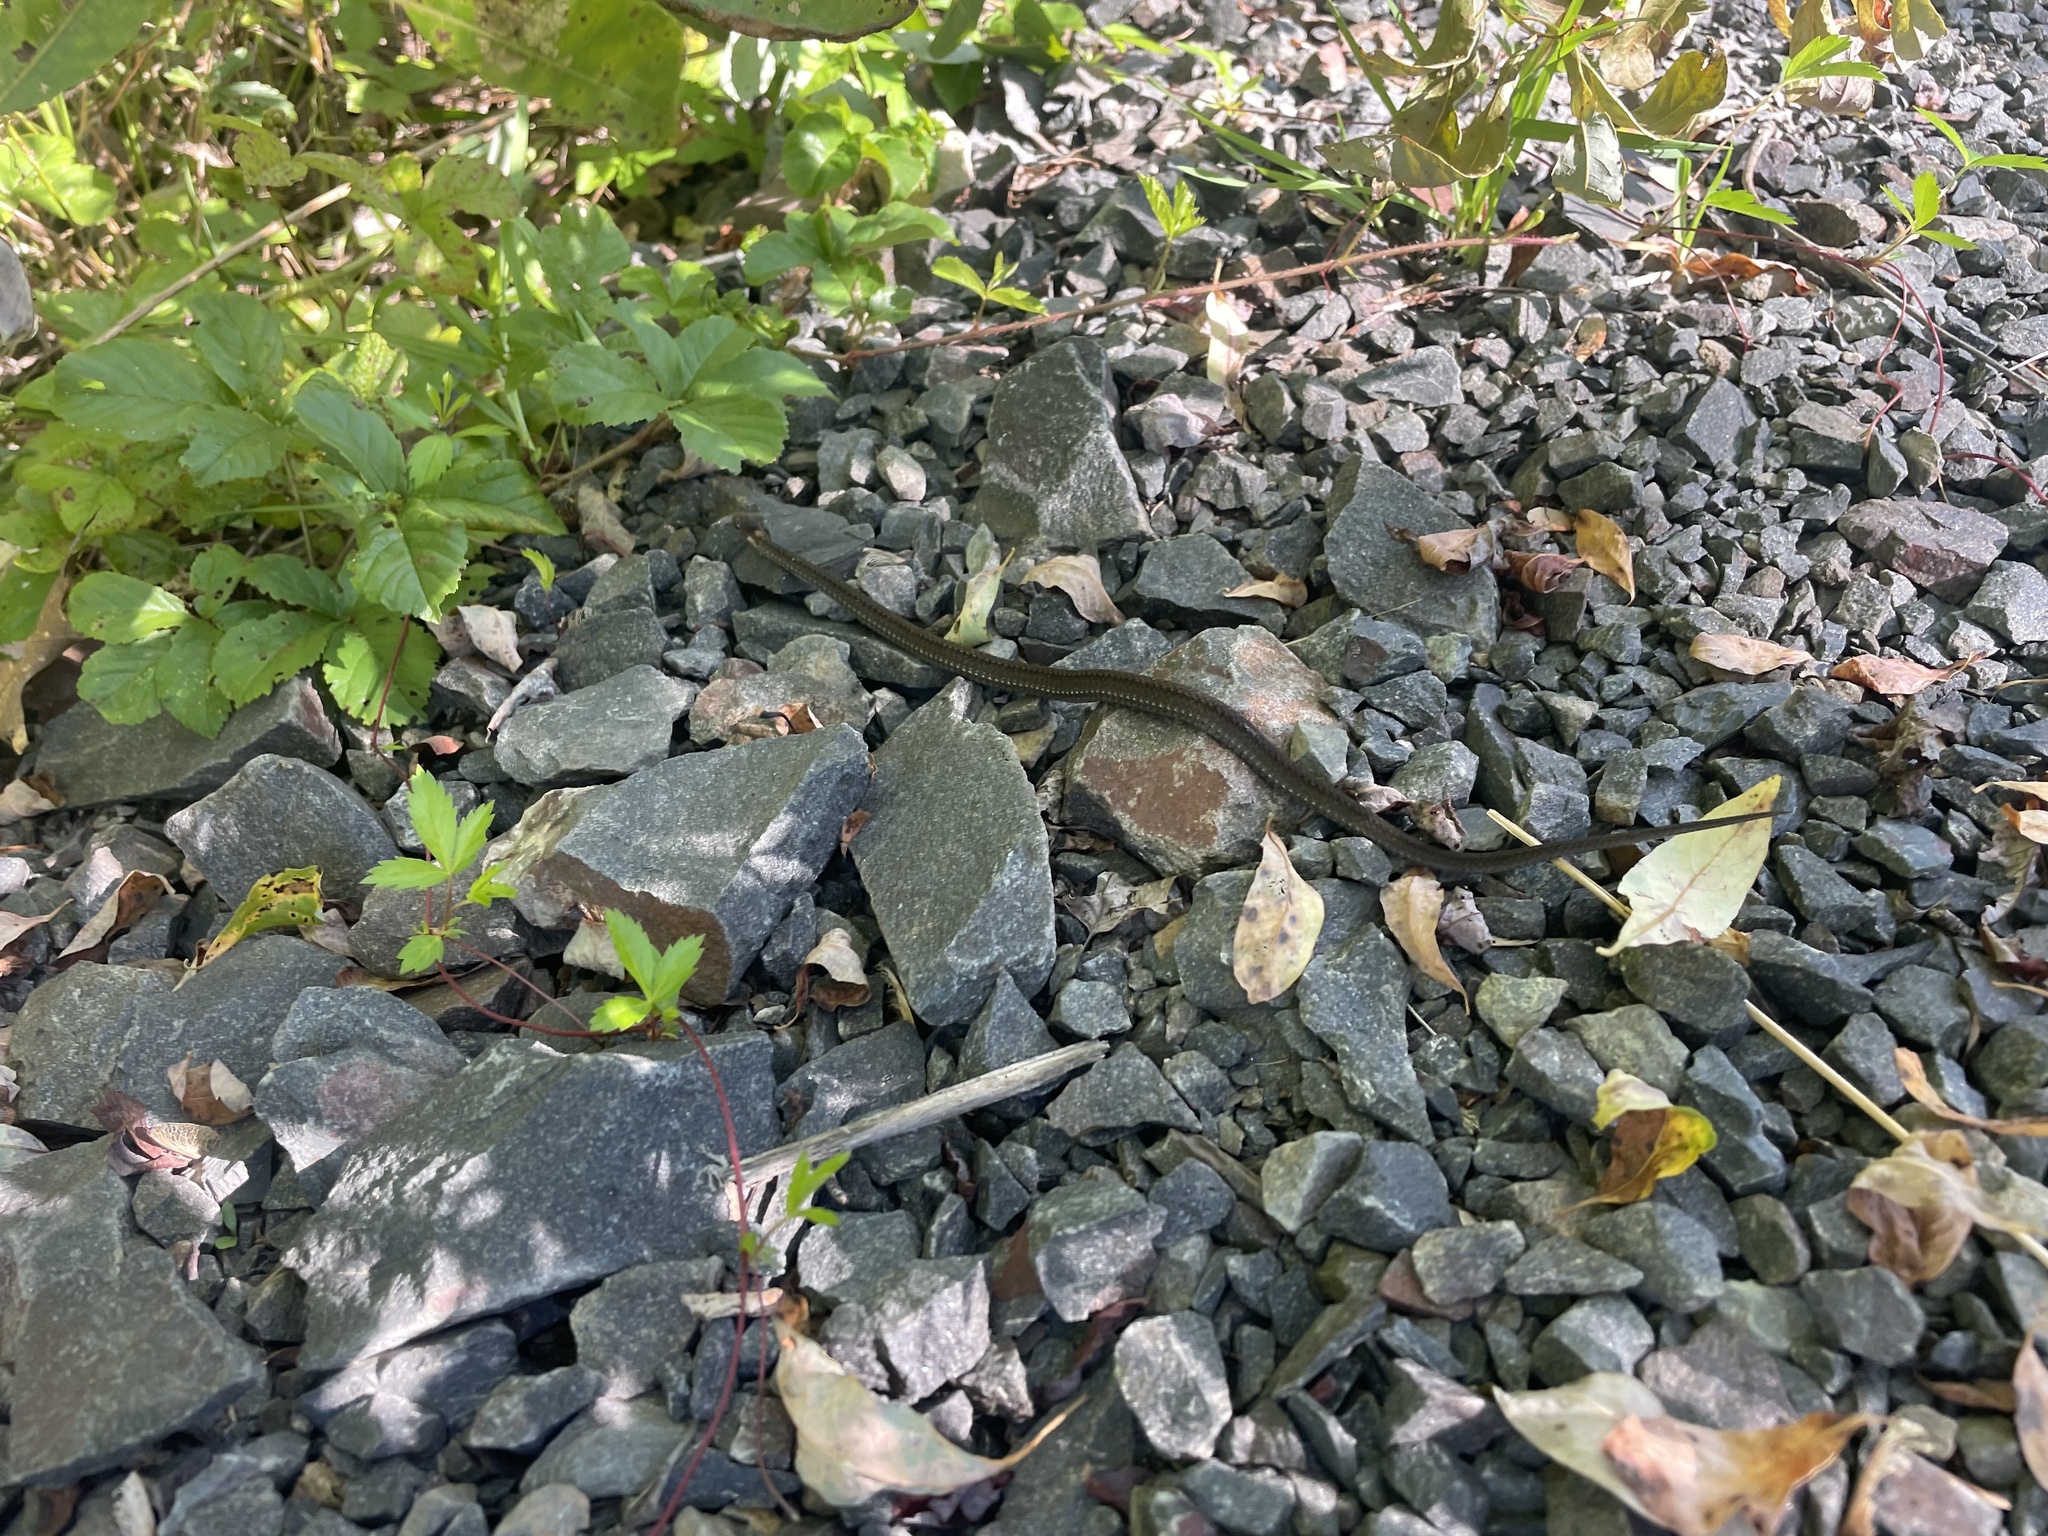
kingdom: Animalia
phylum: Chordata
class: Squamata
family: Colubridae
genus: Storeria
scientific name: Storeria occipitomaculata
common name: Redbelly snake
